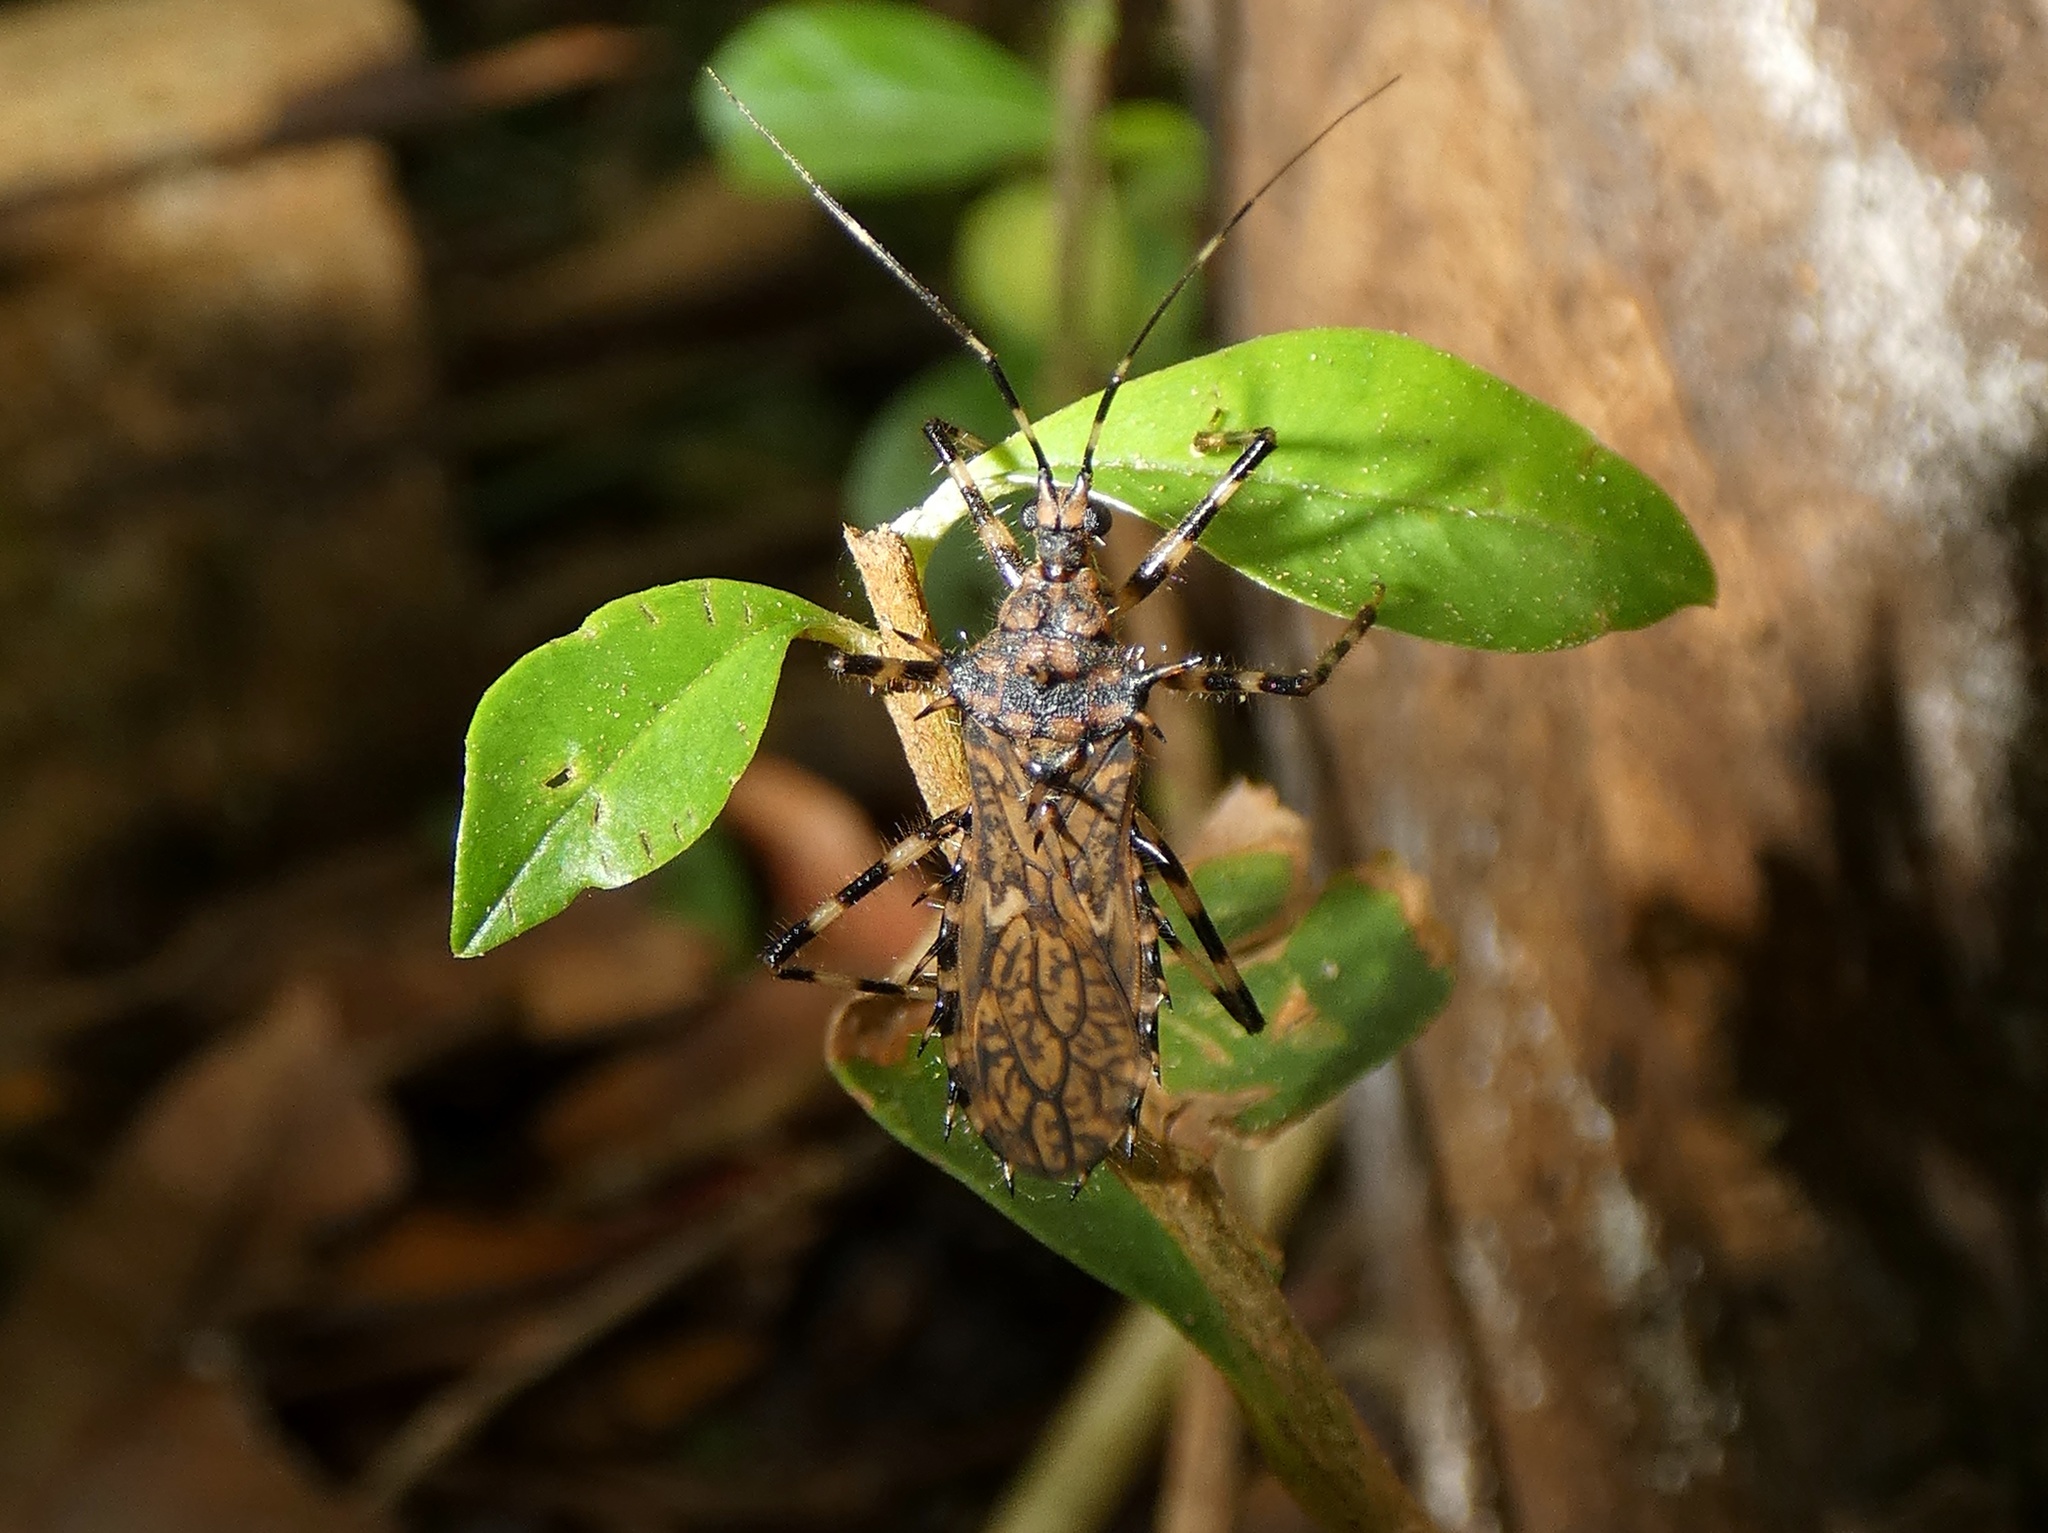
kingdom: Animalia
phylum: Arthropoda
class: Insecta
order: Hemiptera
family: Reduviidae
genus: Salyavata
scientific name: Salyavata englemani
